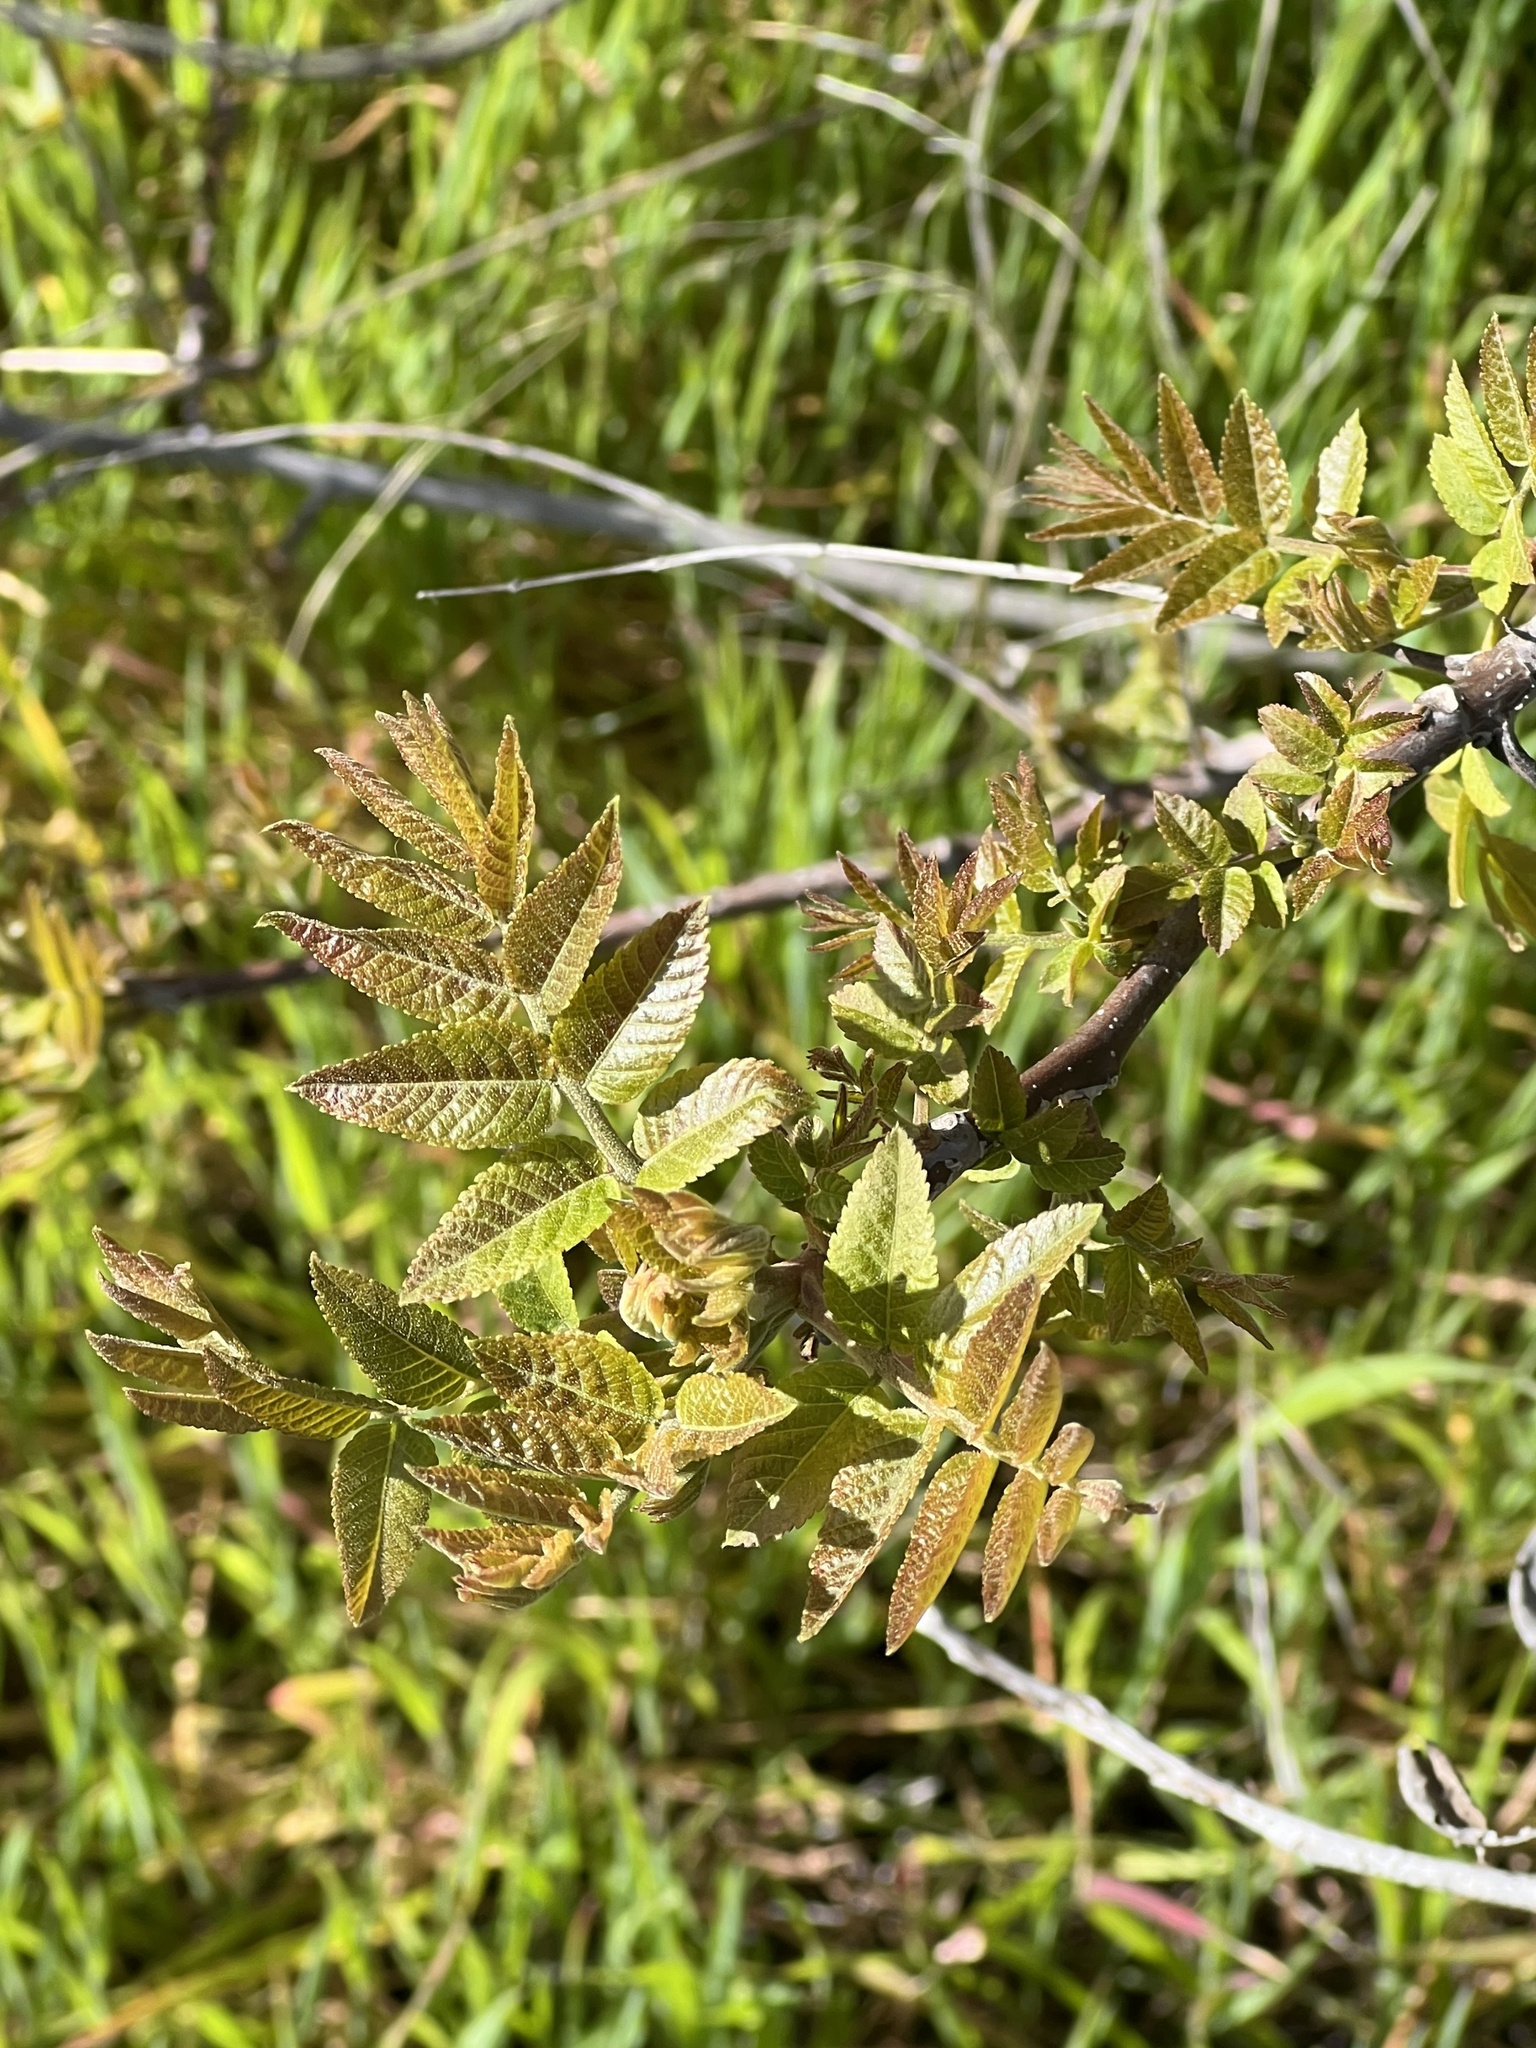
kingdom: Plantae
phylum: Tracheophyta
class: Magnoliopsida
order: Fagales
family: Juglandaceae
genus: Juglans
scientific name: Juglans californica
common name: Southern california black walnut
